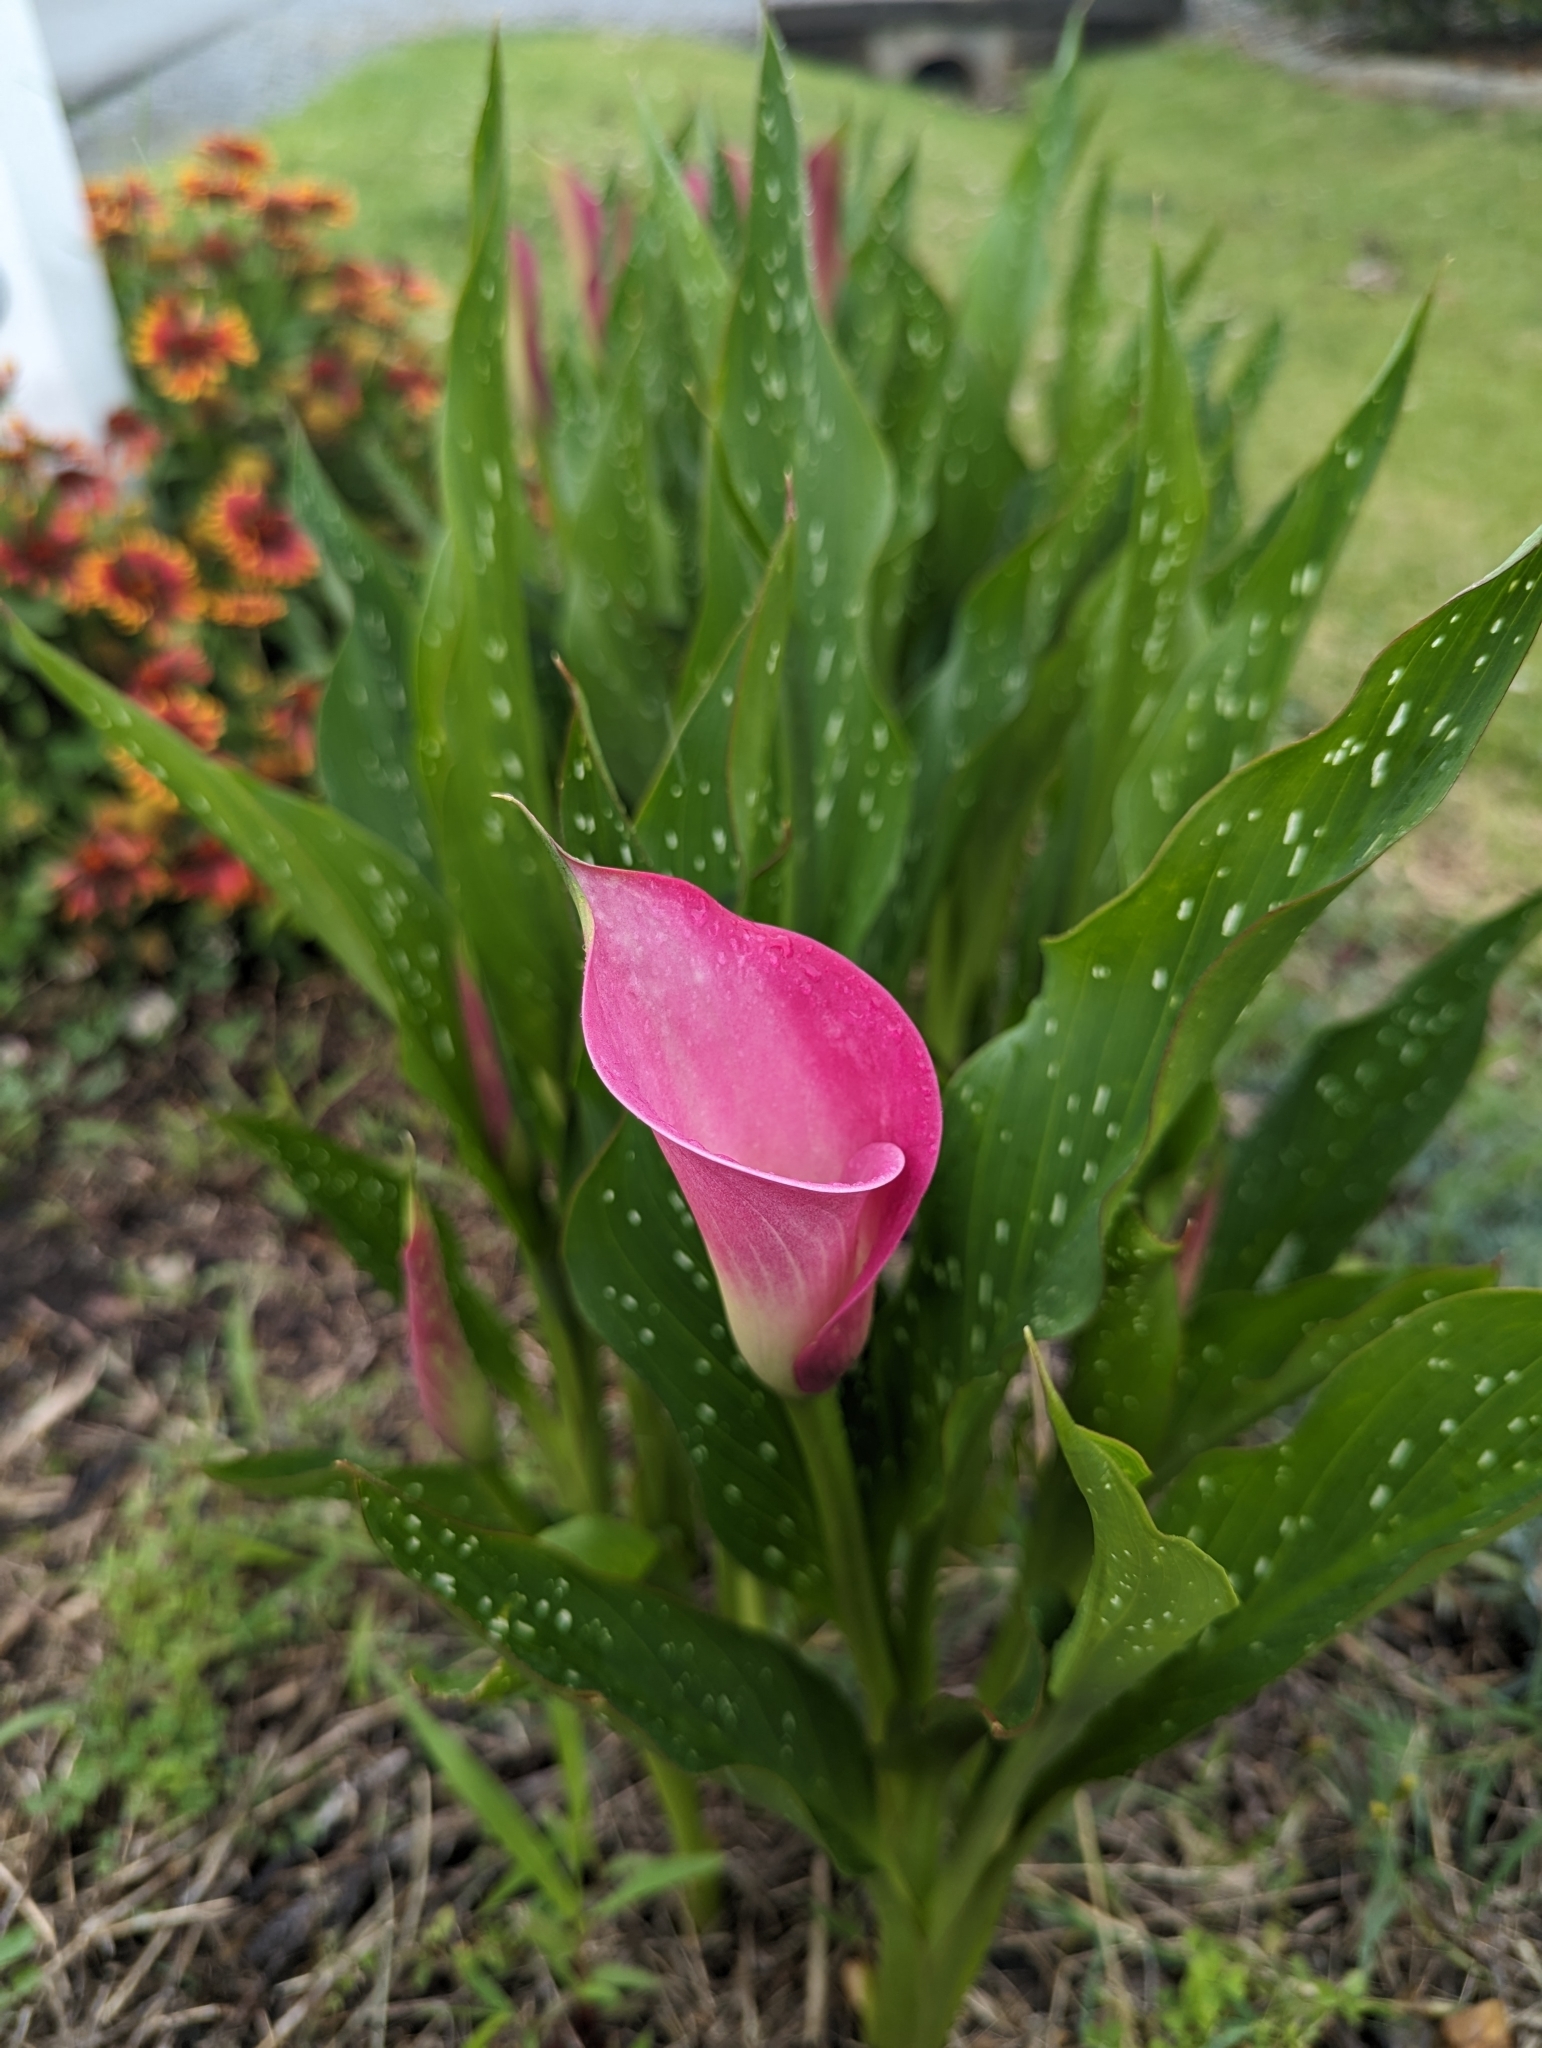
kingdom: Plantae
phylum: Tracheophyta
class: Liliopsida
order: Alismatales
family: Araceae
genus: Zantedeschia
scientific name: Zantedeschia rehmannii
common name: Red calla
